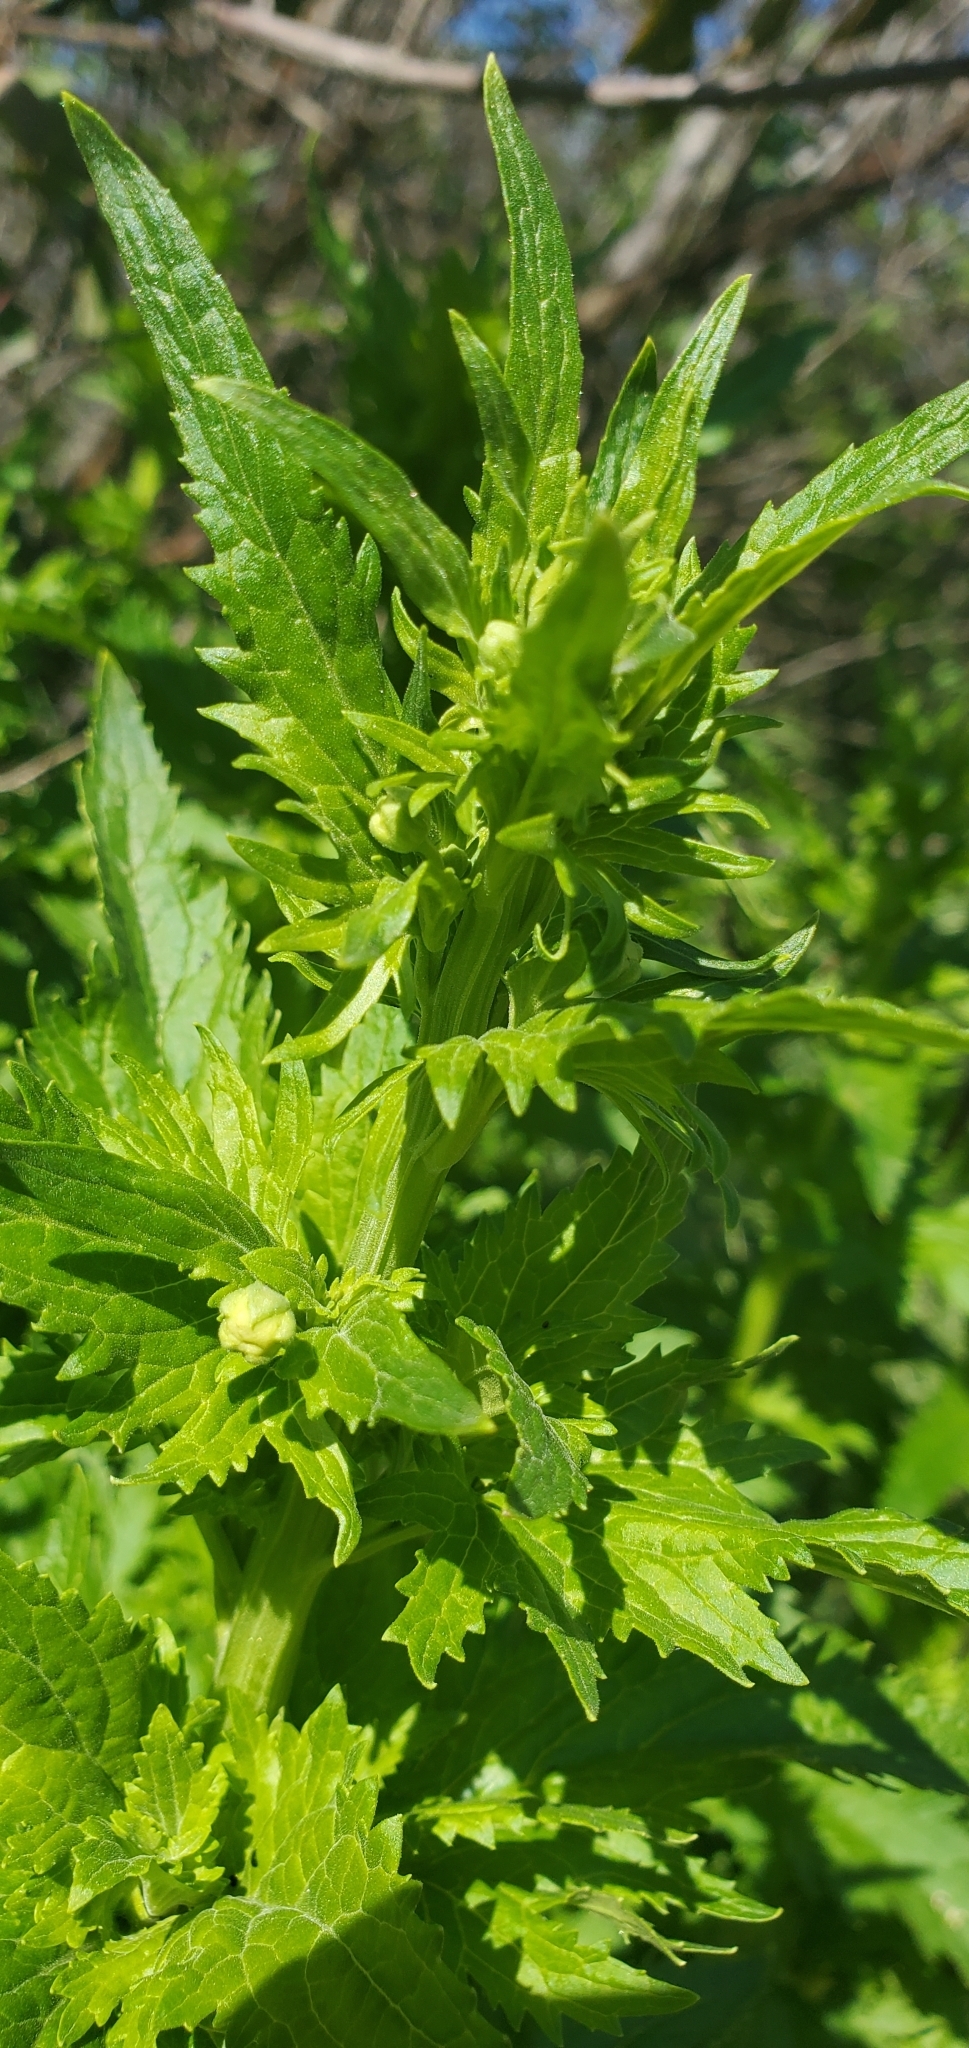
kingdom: Plantae
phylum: Tracheophyta
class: Magnoliopsida
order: Lamiales
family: Scrophulariaceae
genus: Scrophularia
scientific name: Scrophularia californica
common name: California figwort
